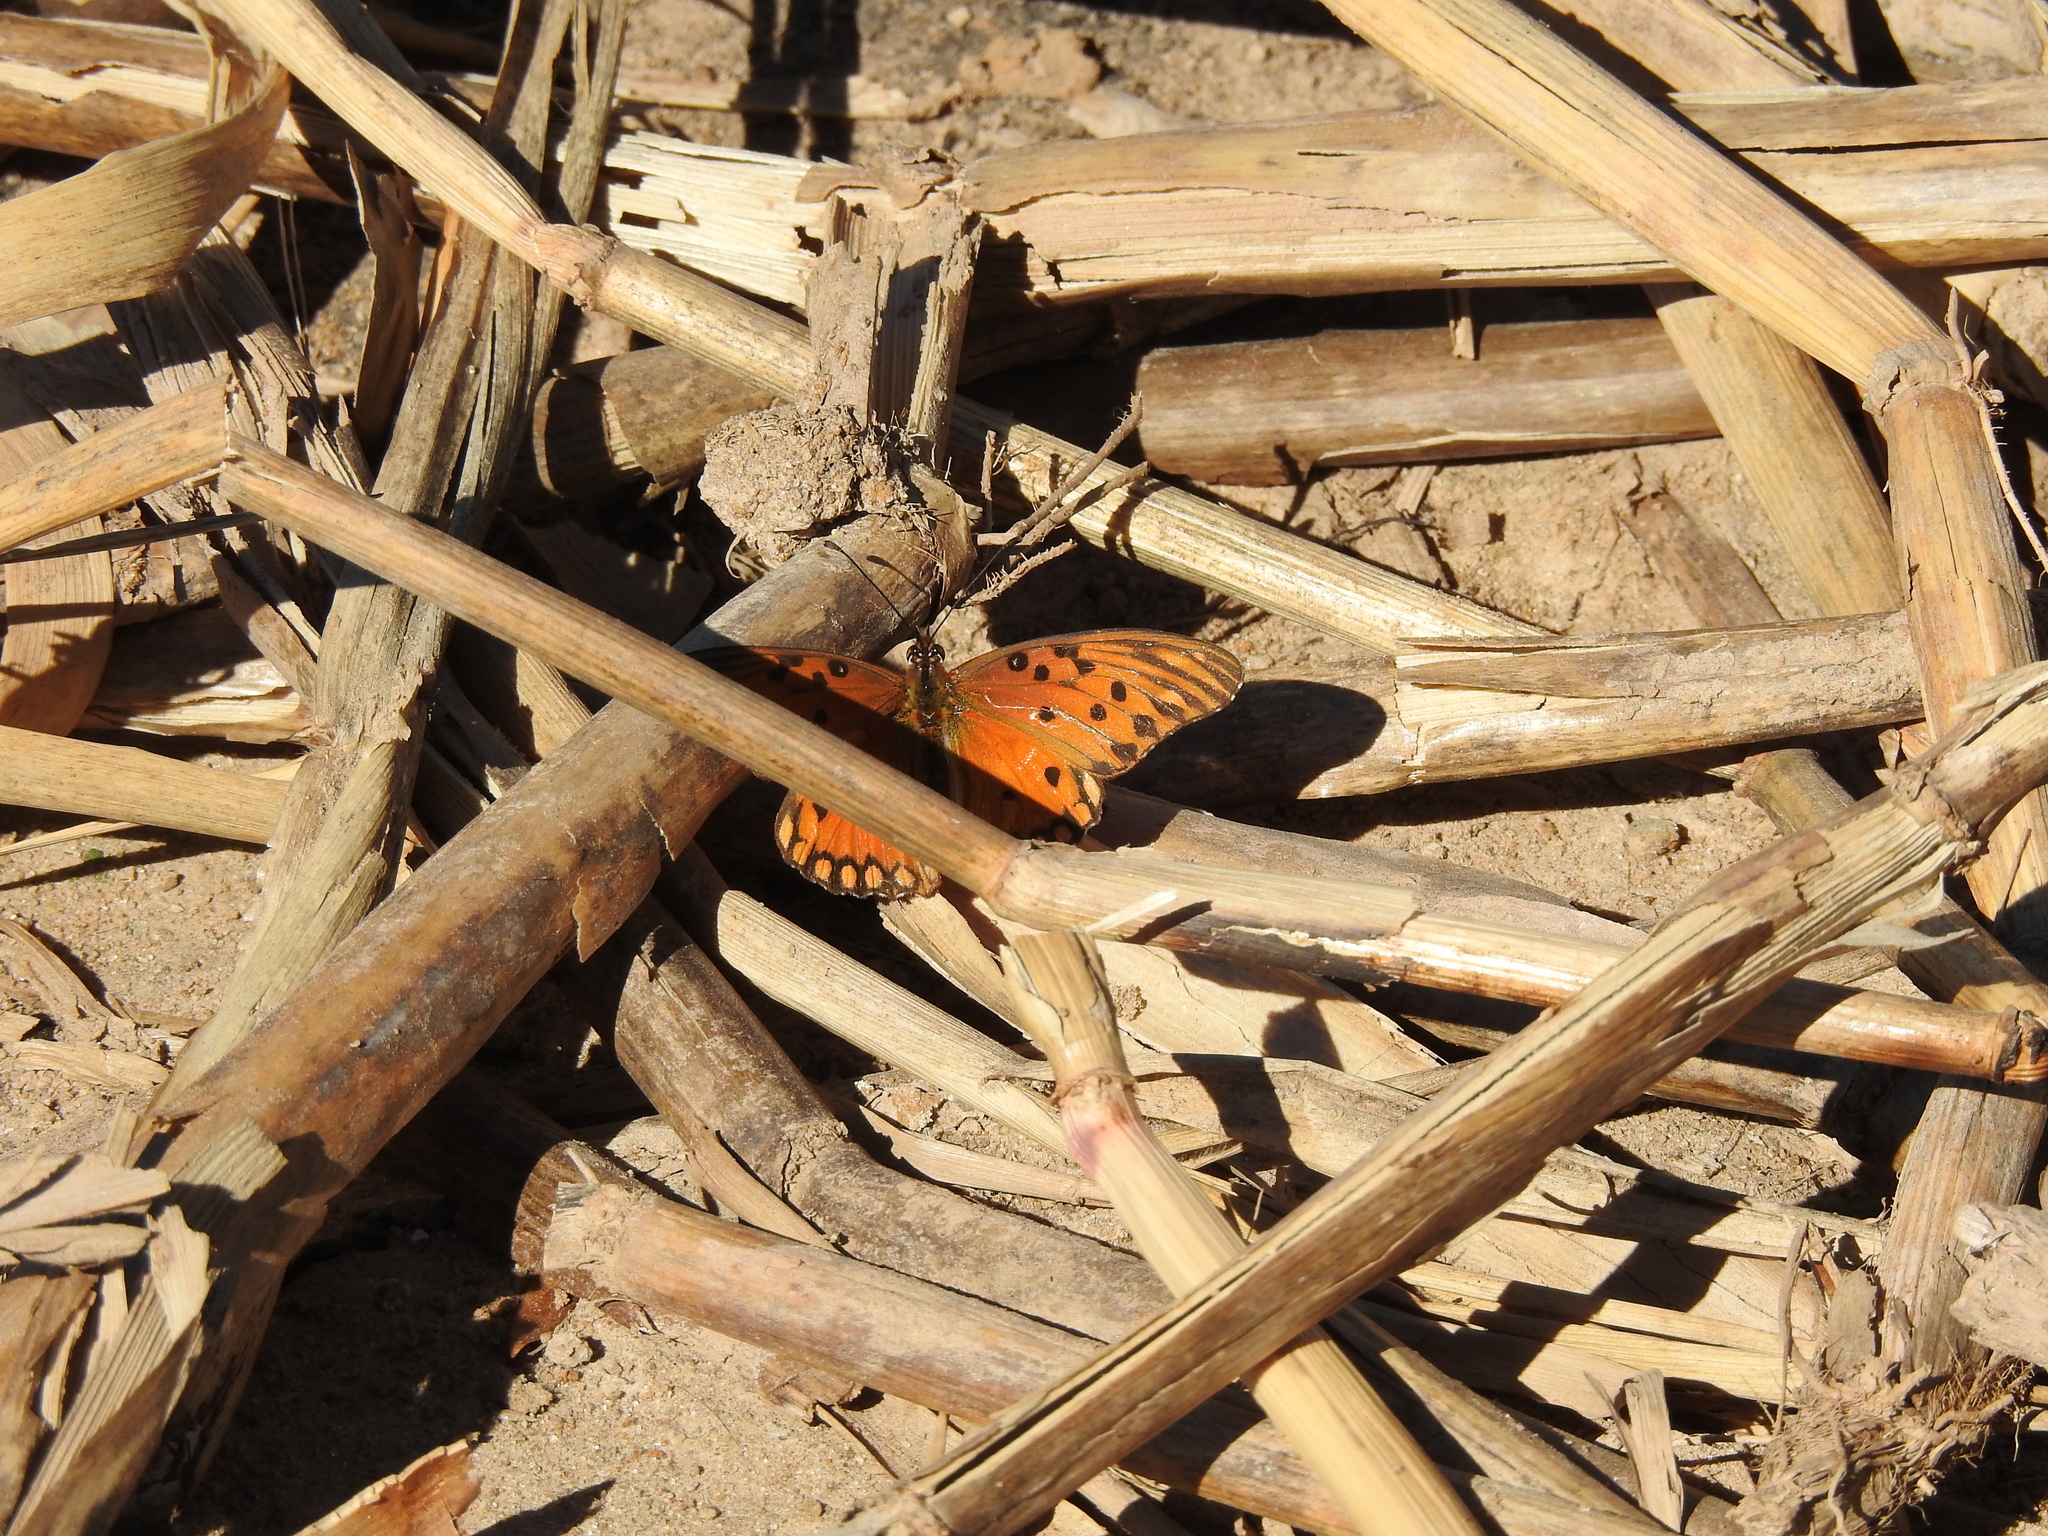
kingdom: Animalia
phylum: Arthropoda
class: Insecta
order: Lepidoptera
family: Nymphalidae
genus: Dione
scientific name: Dione vanillae
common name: Gulf fritillary
